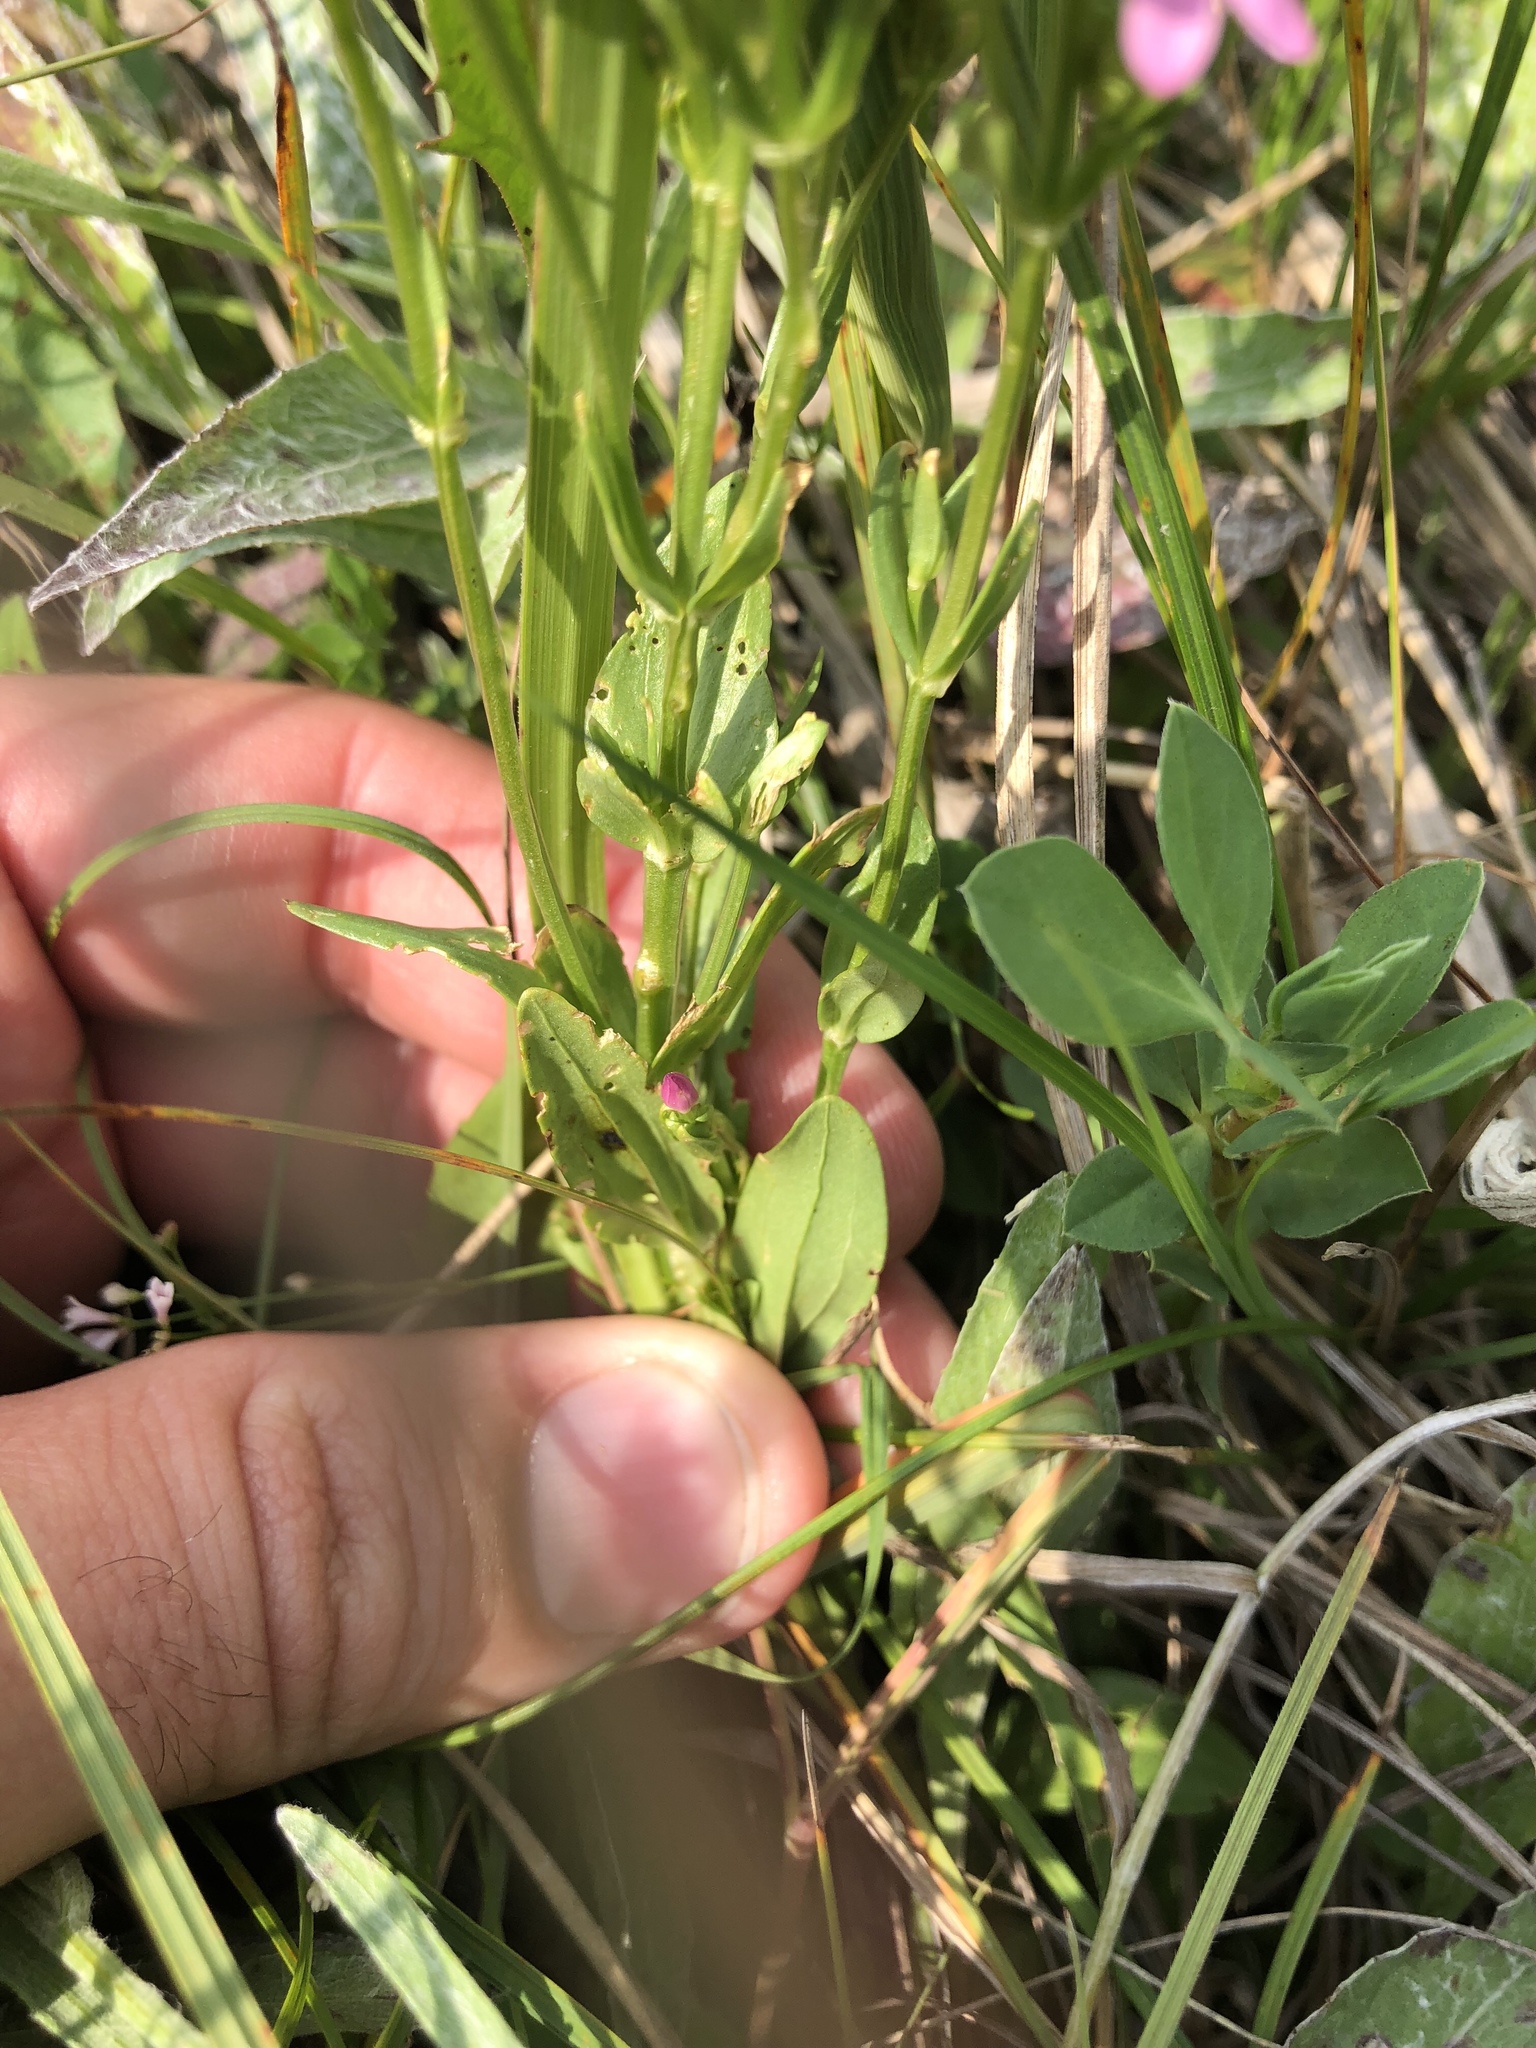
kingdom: Plantae
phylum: Tracheophyta
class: Magnoliopsida
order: Gentianales
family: Gentianaceae
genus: Centaurium
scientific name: Centaurium erythraea
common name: Common centaury
